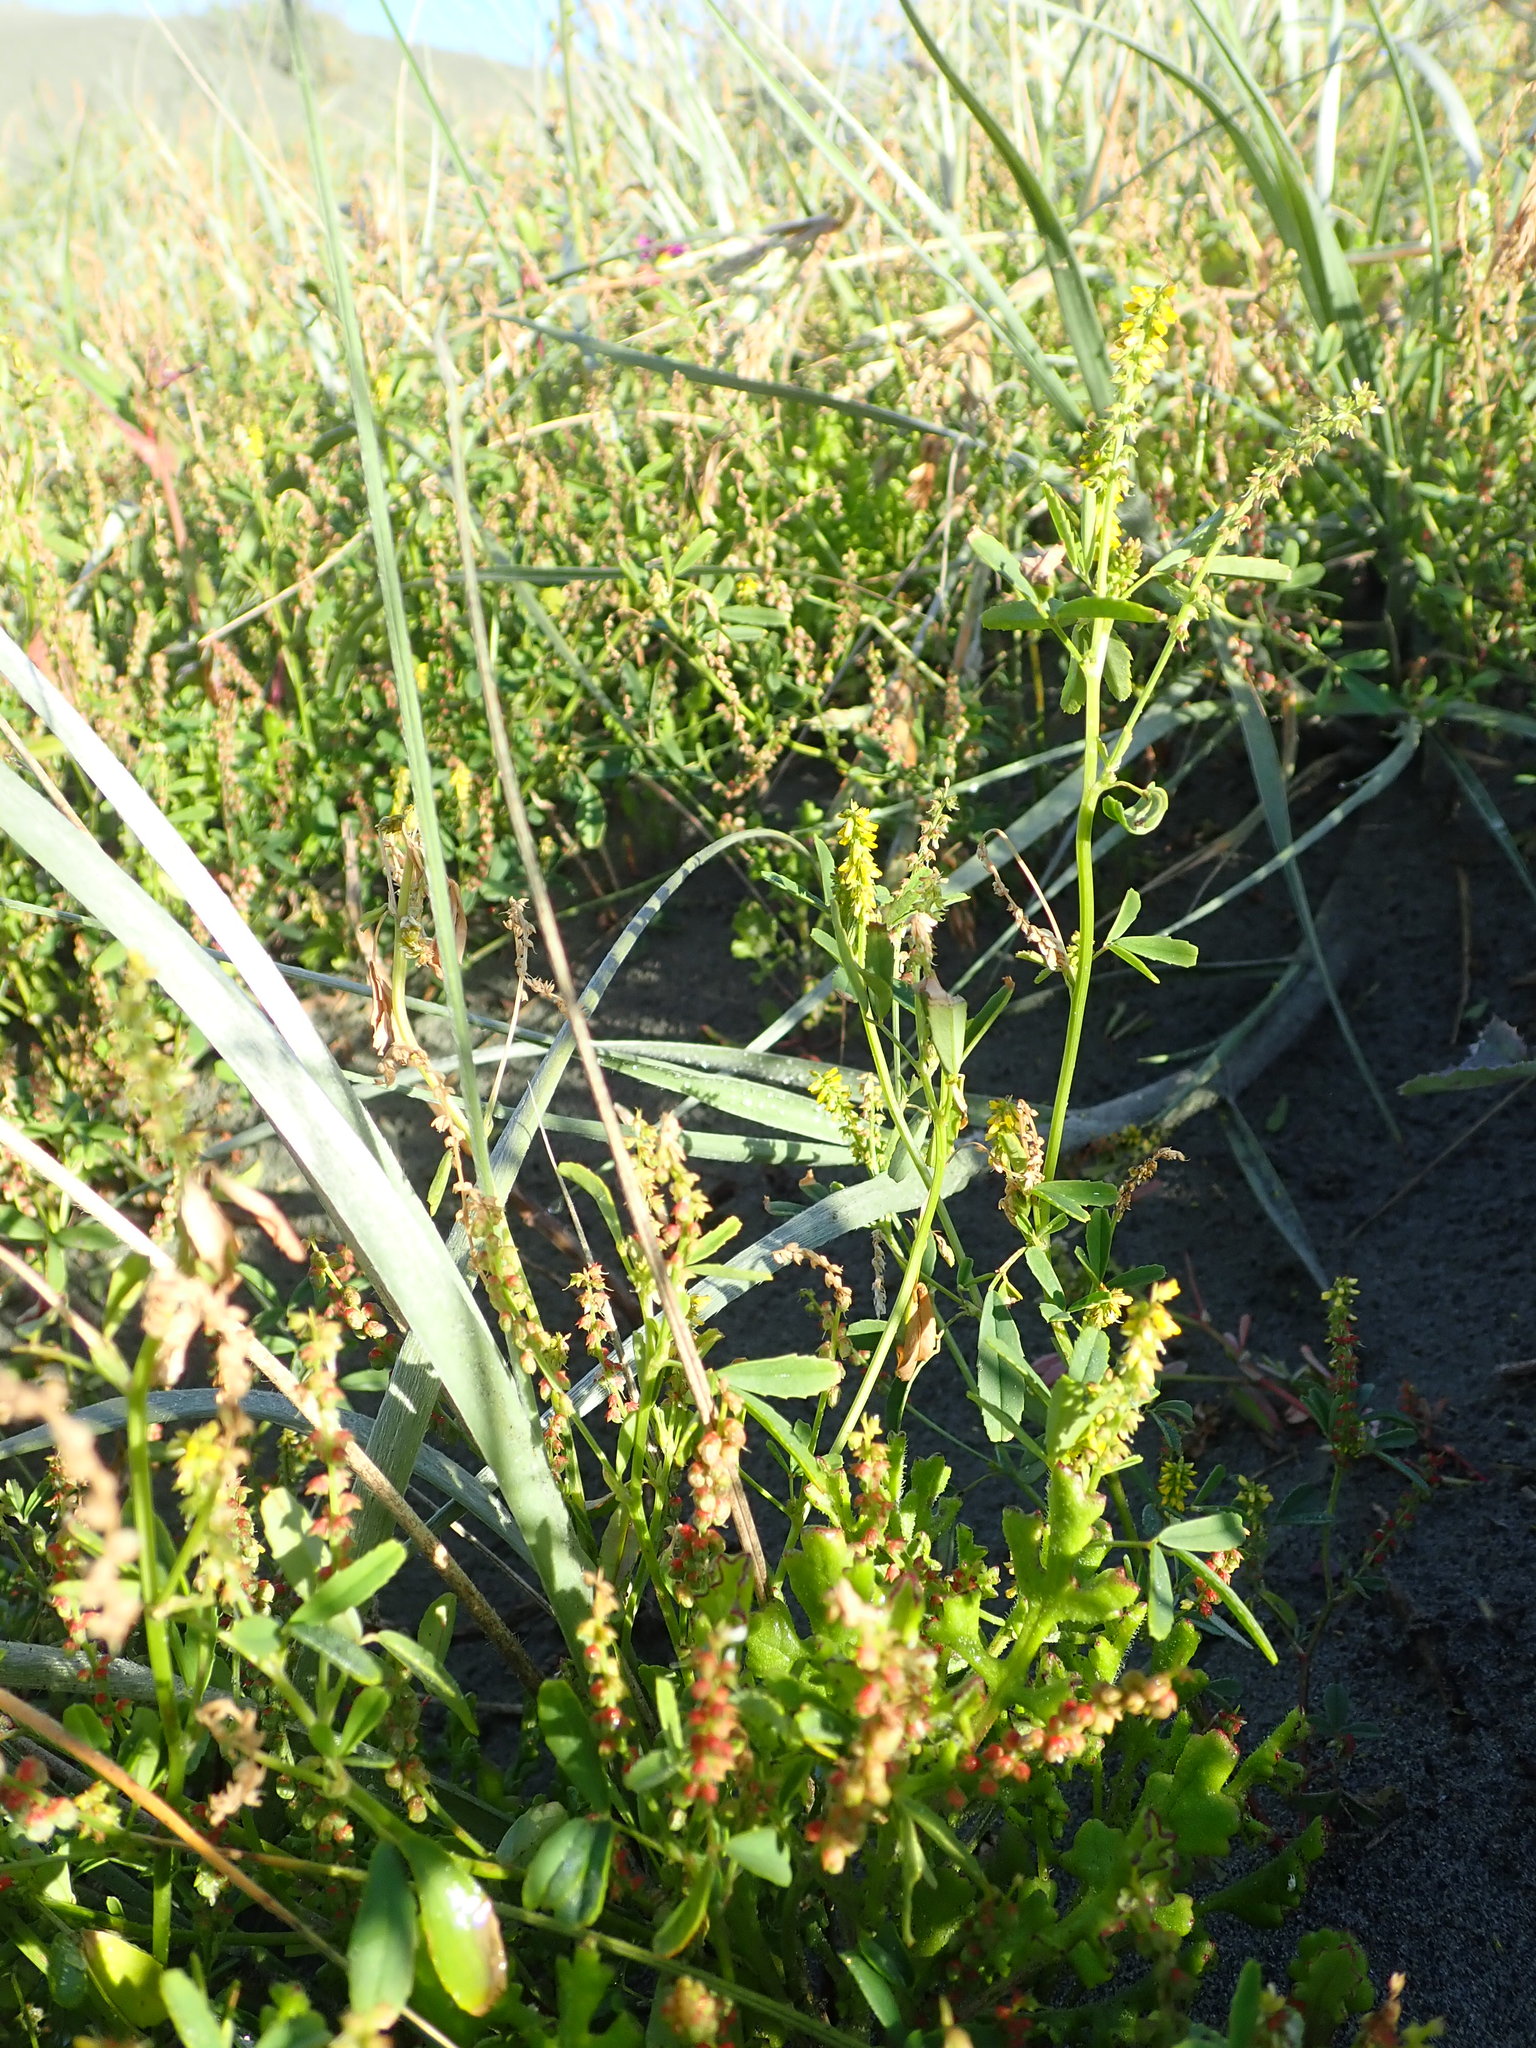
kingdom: Plantae
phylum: Tracheophyta
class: Magnoliopsida
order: Fabales
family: Fabaceae
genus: Melilotus
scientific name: Melilotus indicus
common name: Small melilot
